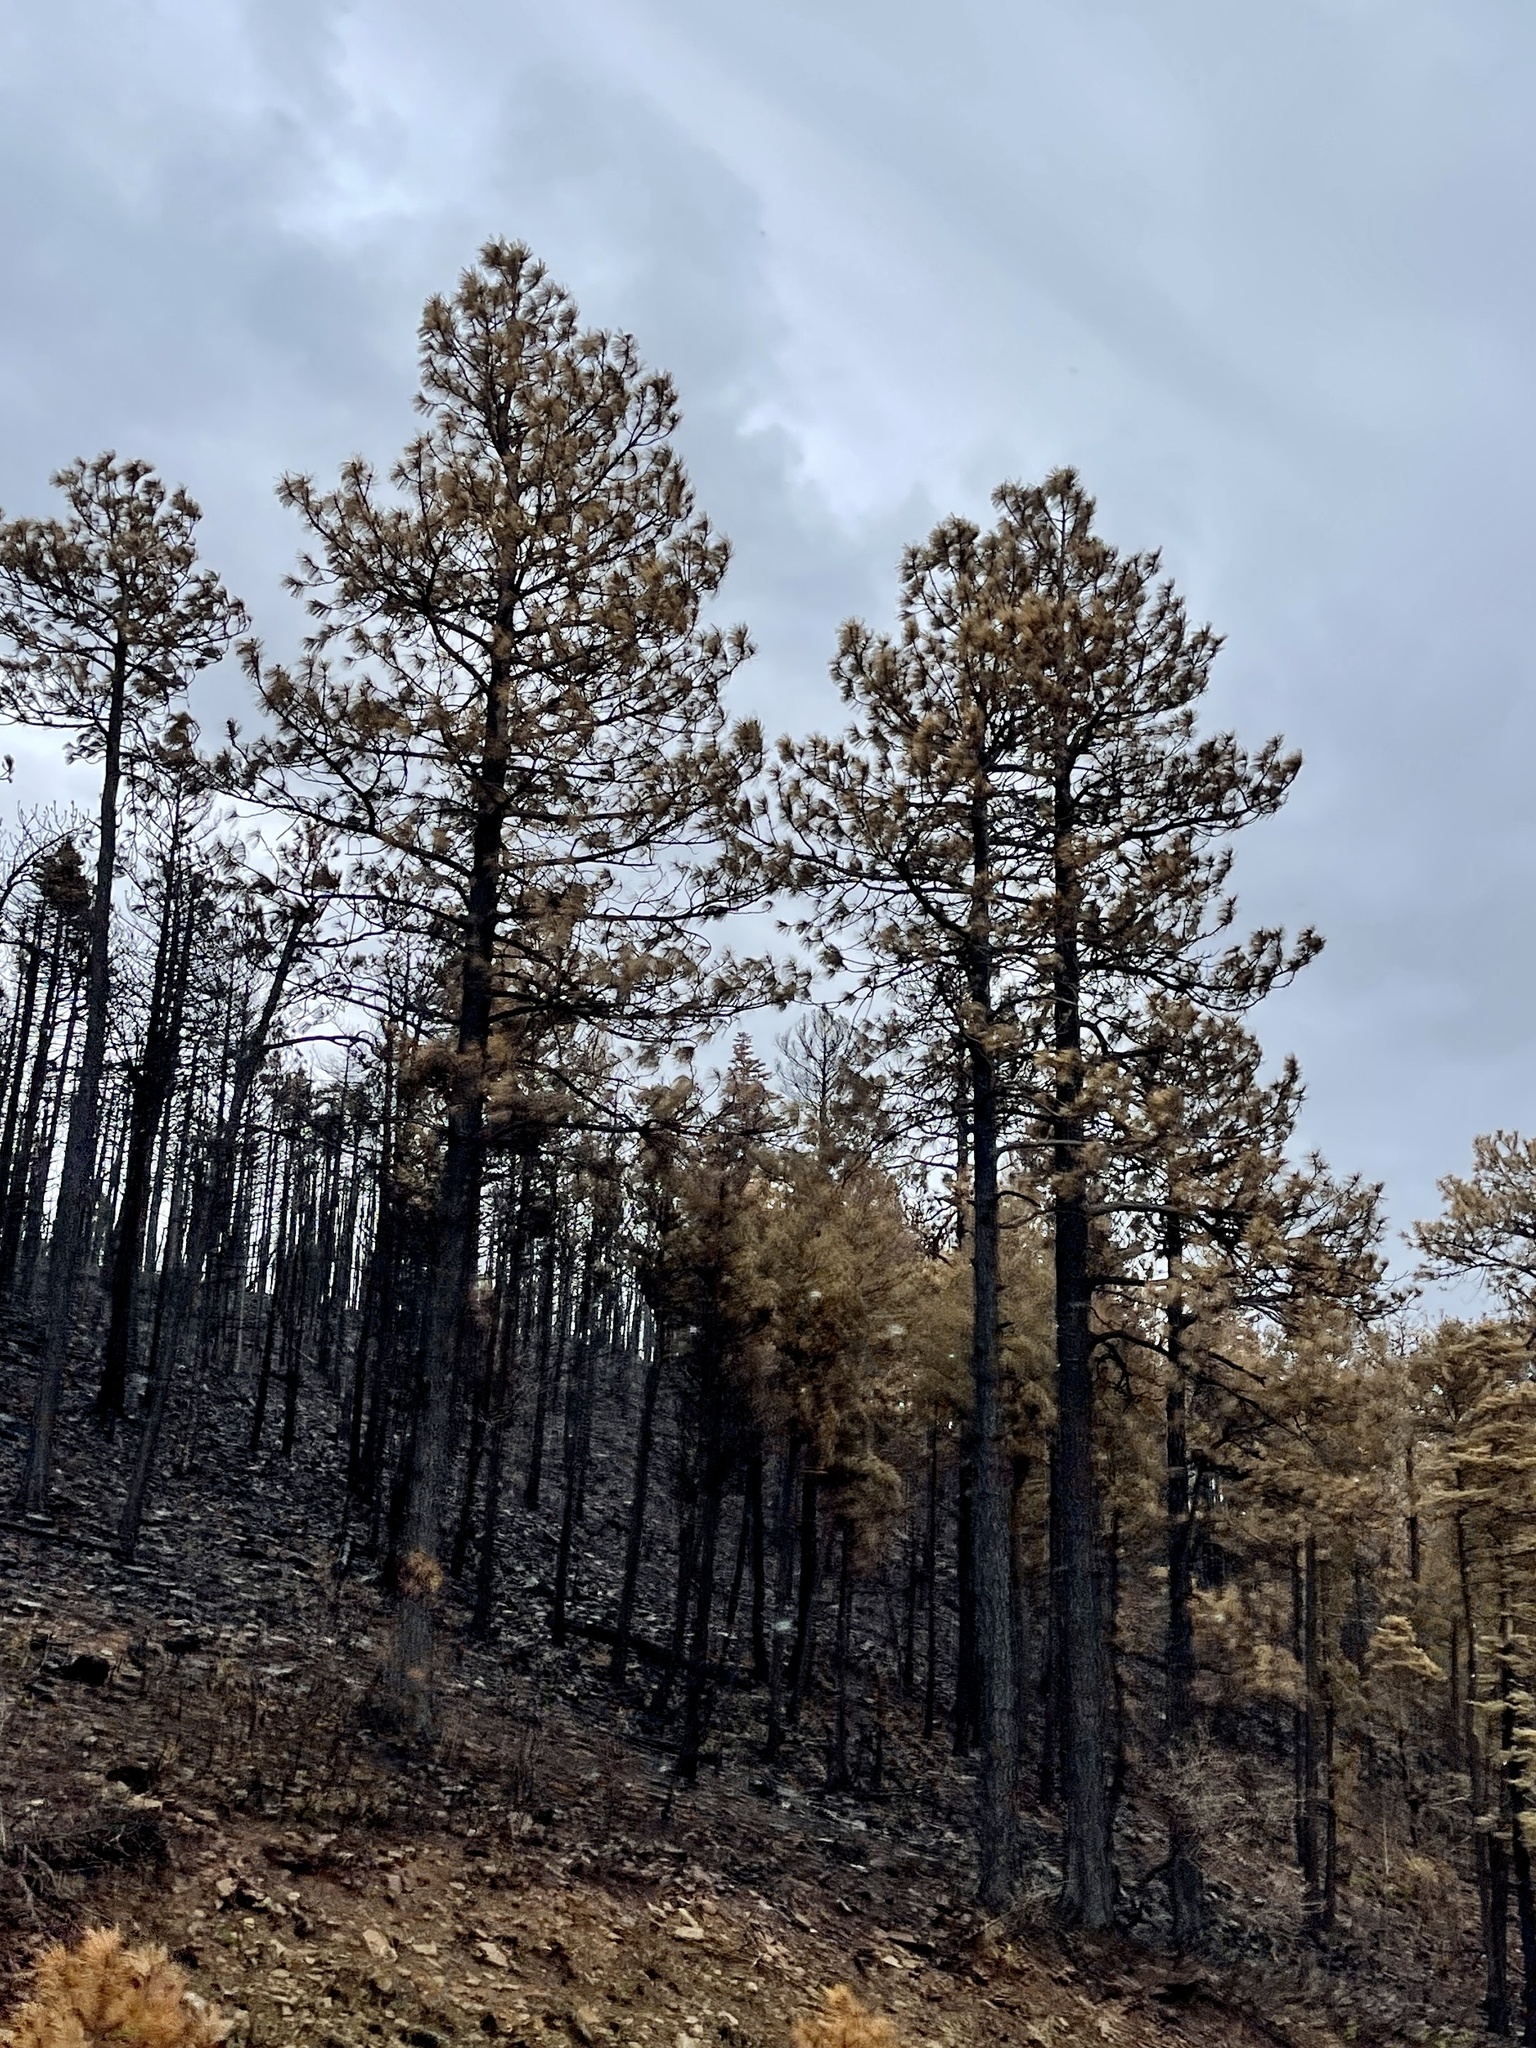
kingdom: Plantae
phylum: Tracheophyta
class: Pinopsida
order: Pinales
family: Pinaceae
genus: Pinus
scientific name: Pinus ponderosa
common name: Western yellow-pine
